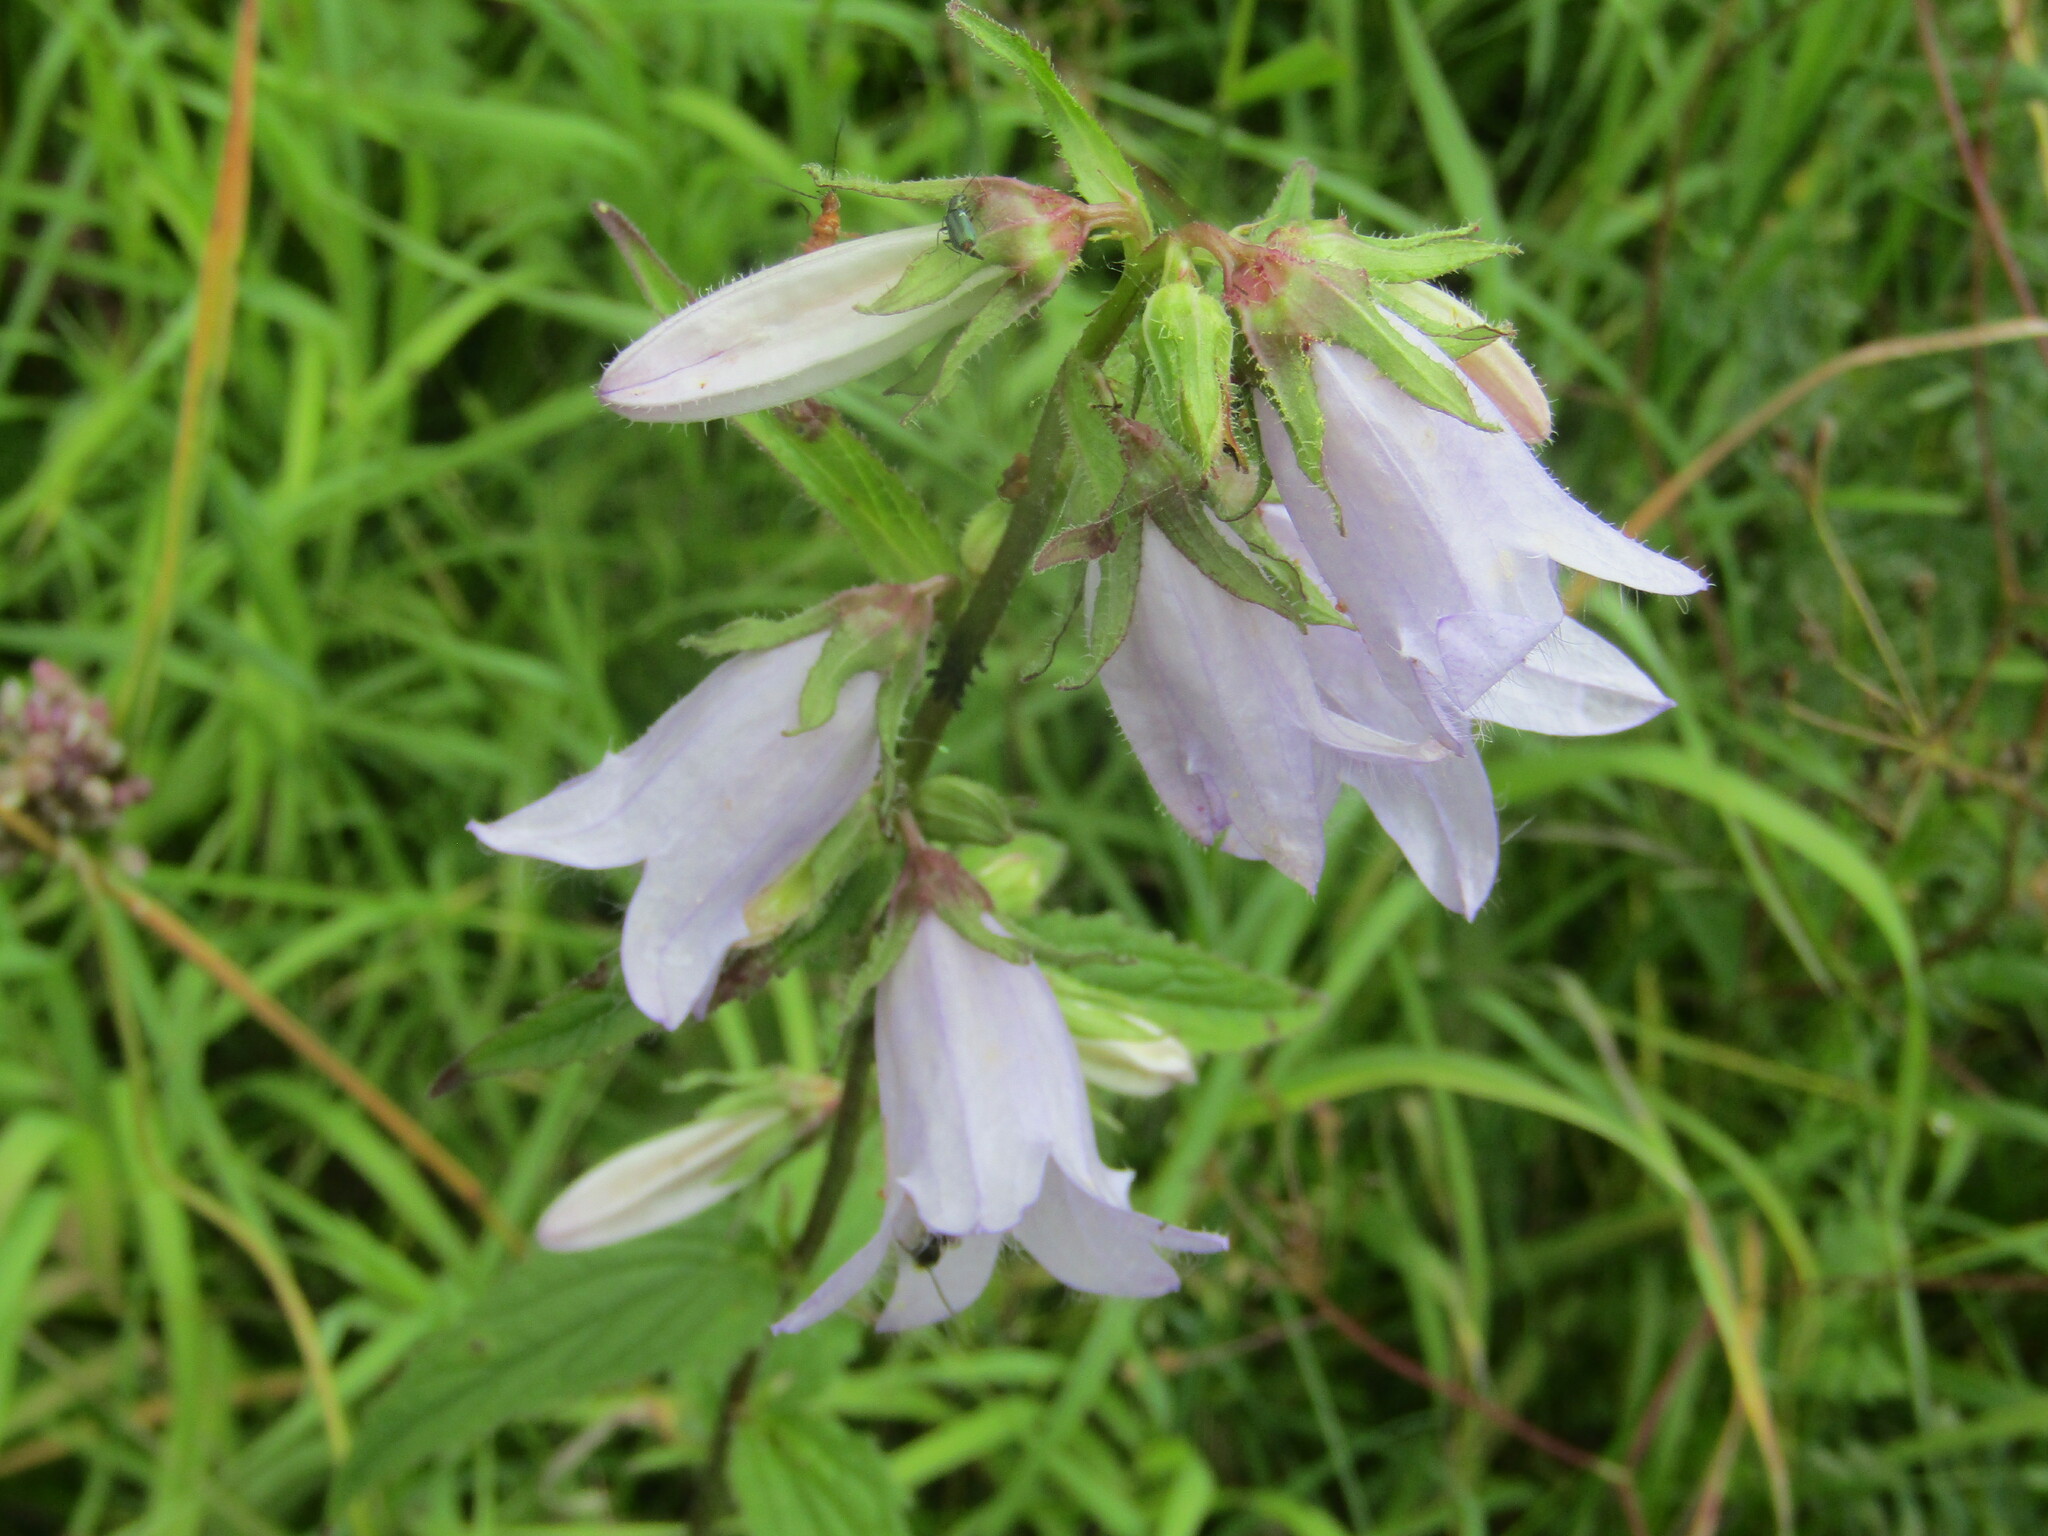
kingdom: Plantae
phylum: Tracheophyta
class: Magnoliopsida
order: Asterales
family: Campanulaceae
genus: Campanula
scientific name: Campanula trachelium
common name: Nettle-leaved bellflower
